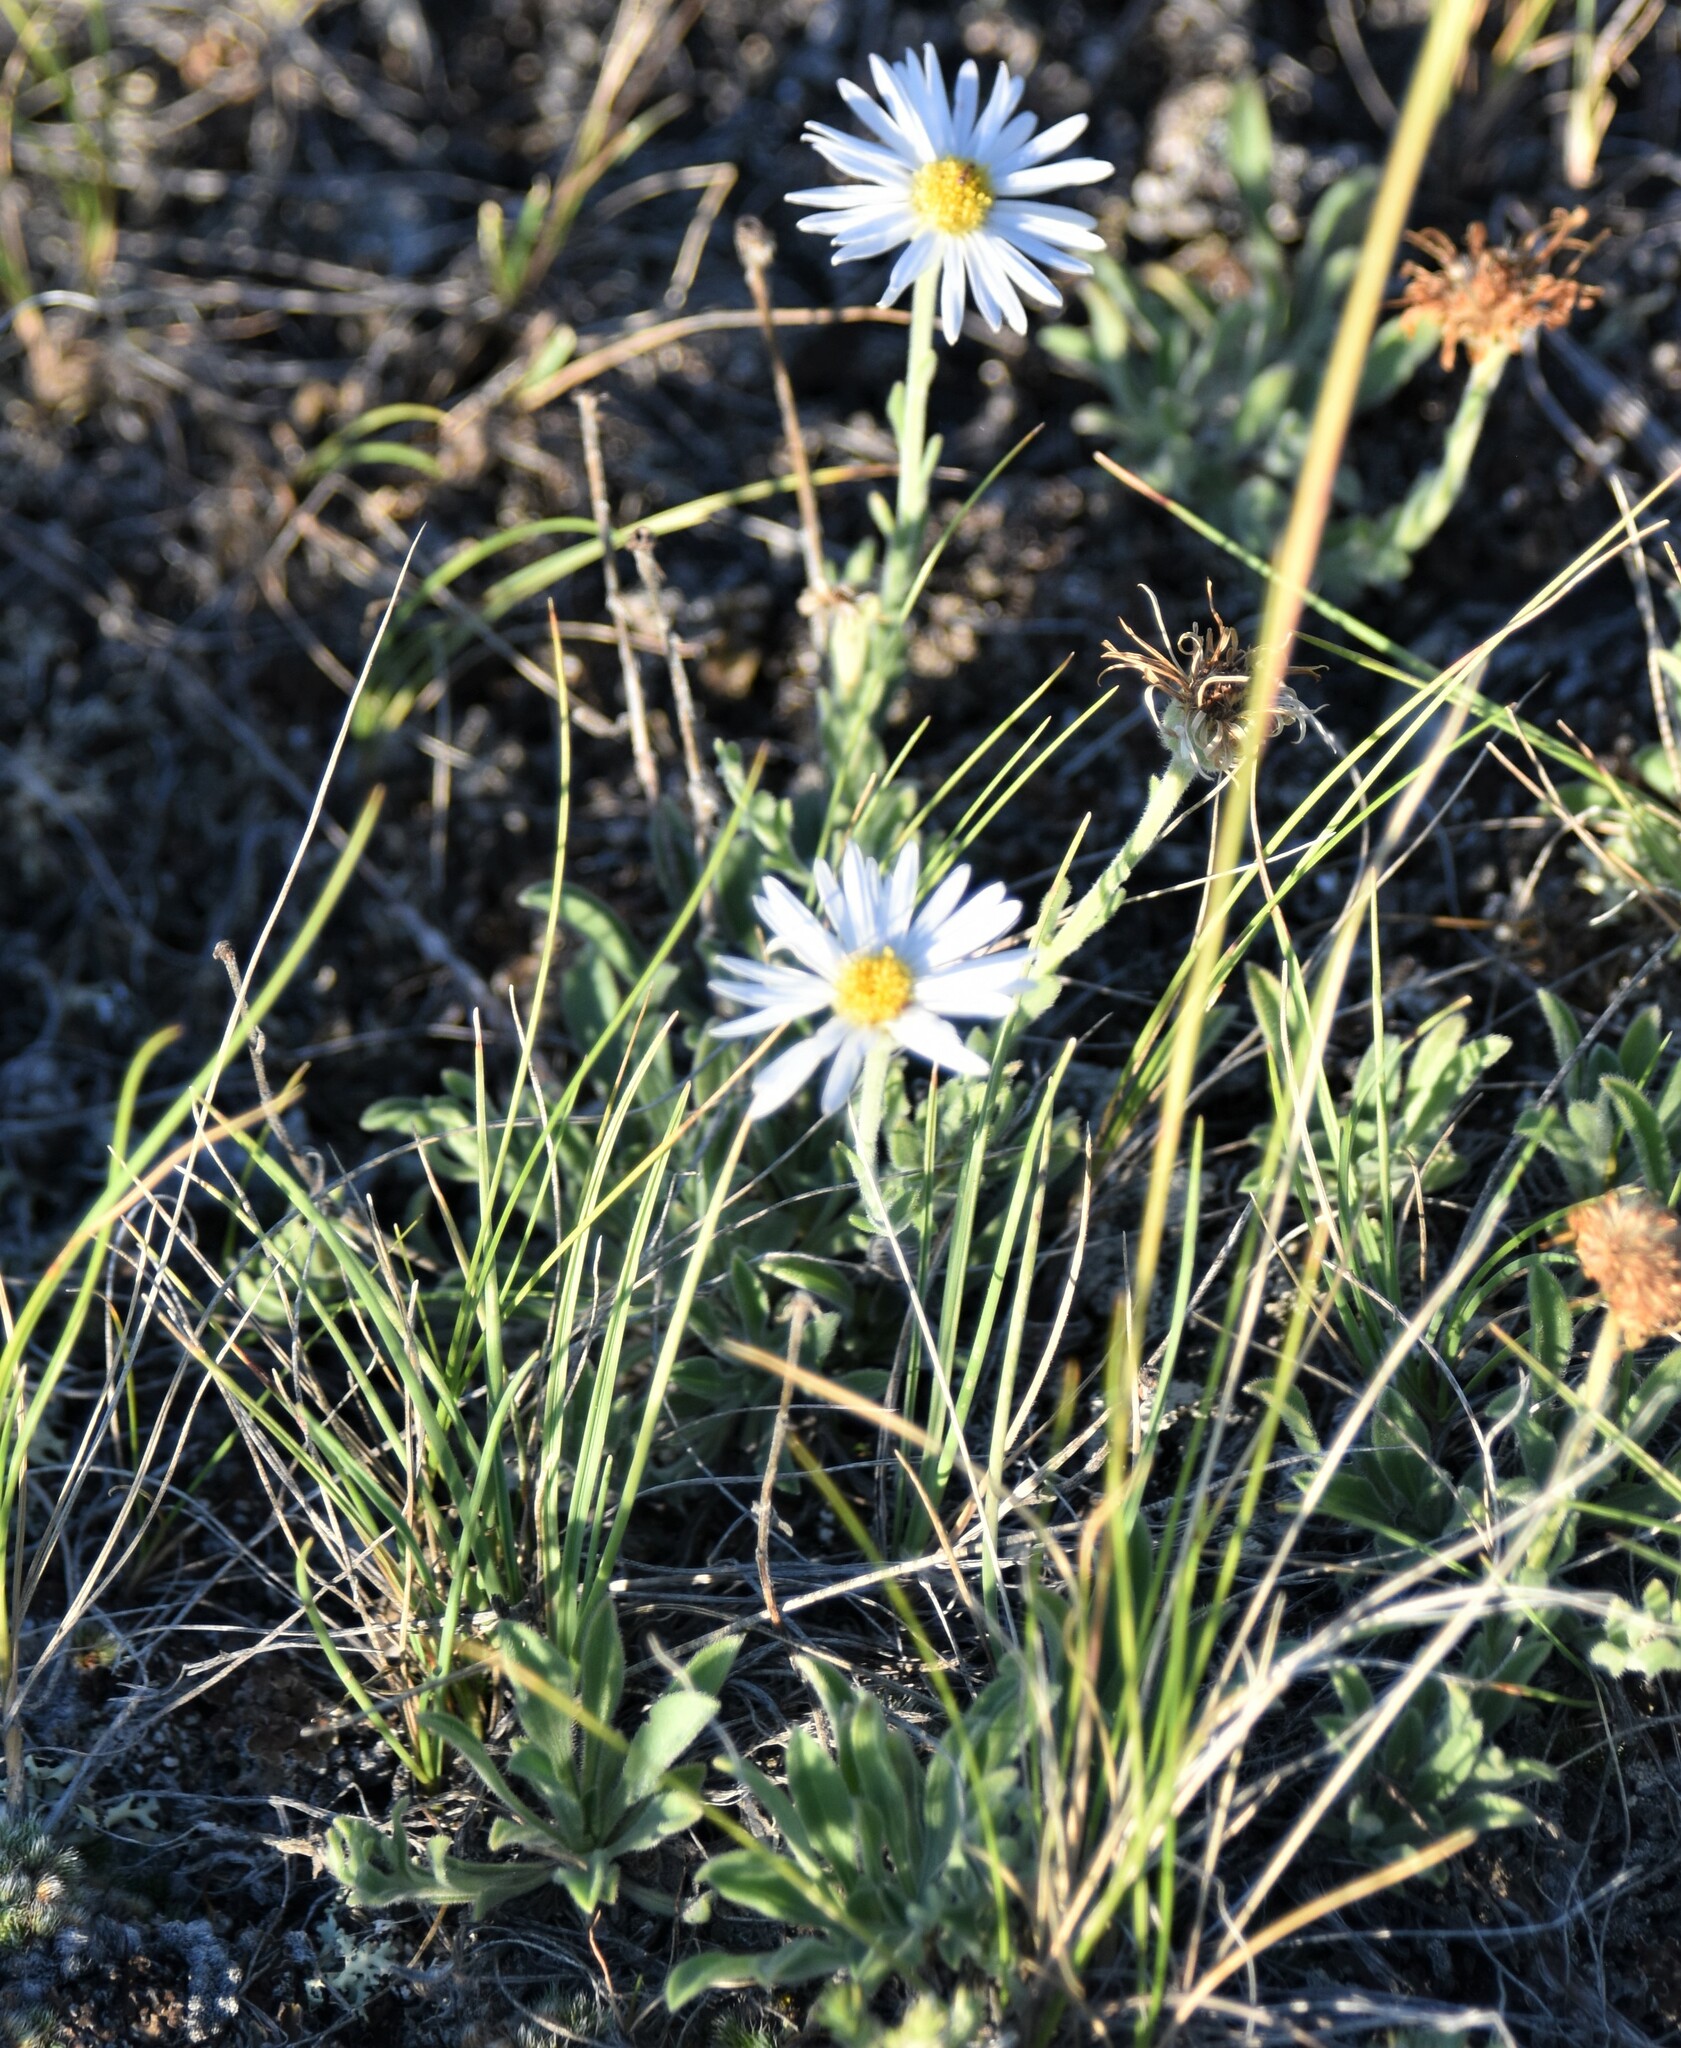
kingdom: Plantae
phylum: Tracheophyta
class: Magnoliopsida
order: Asterales
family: Asteraceae
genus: Erigeron
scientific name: Erigeron caespitosus
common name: Tufted fleabane
